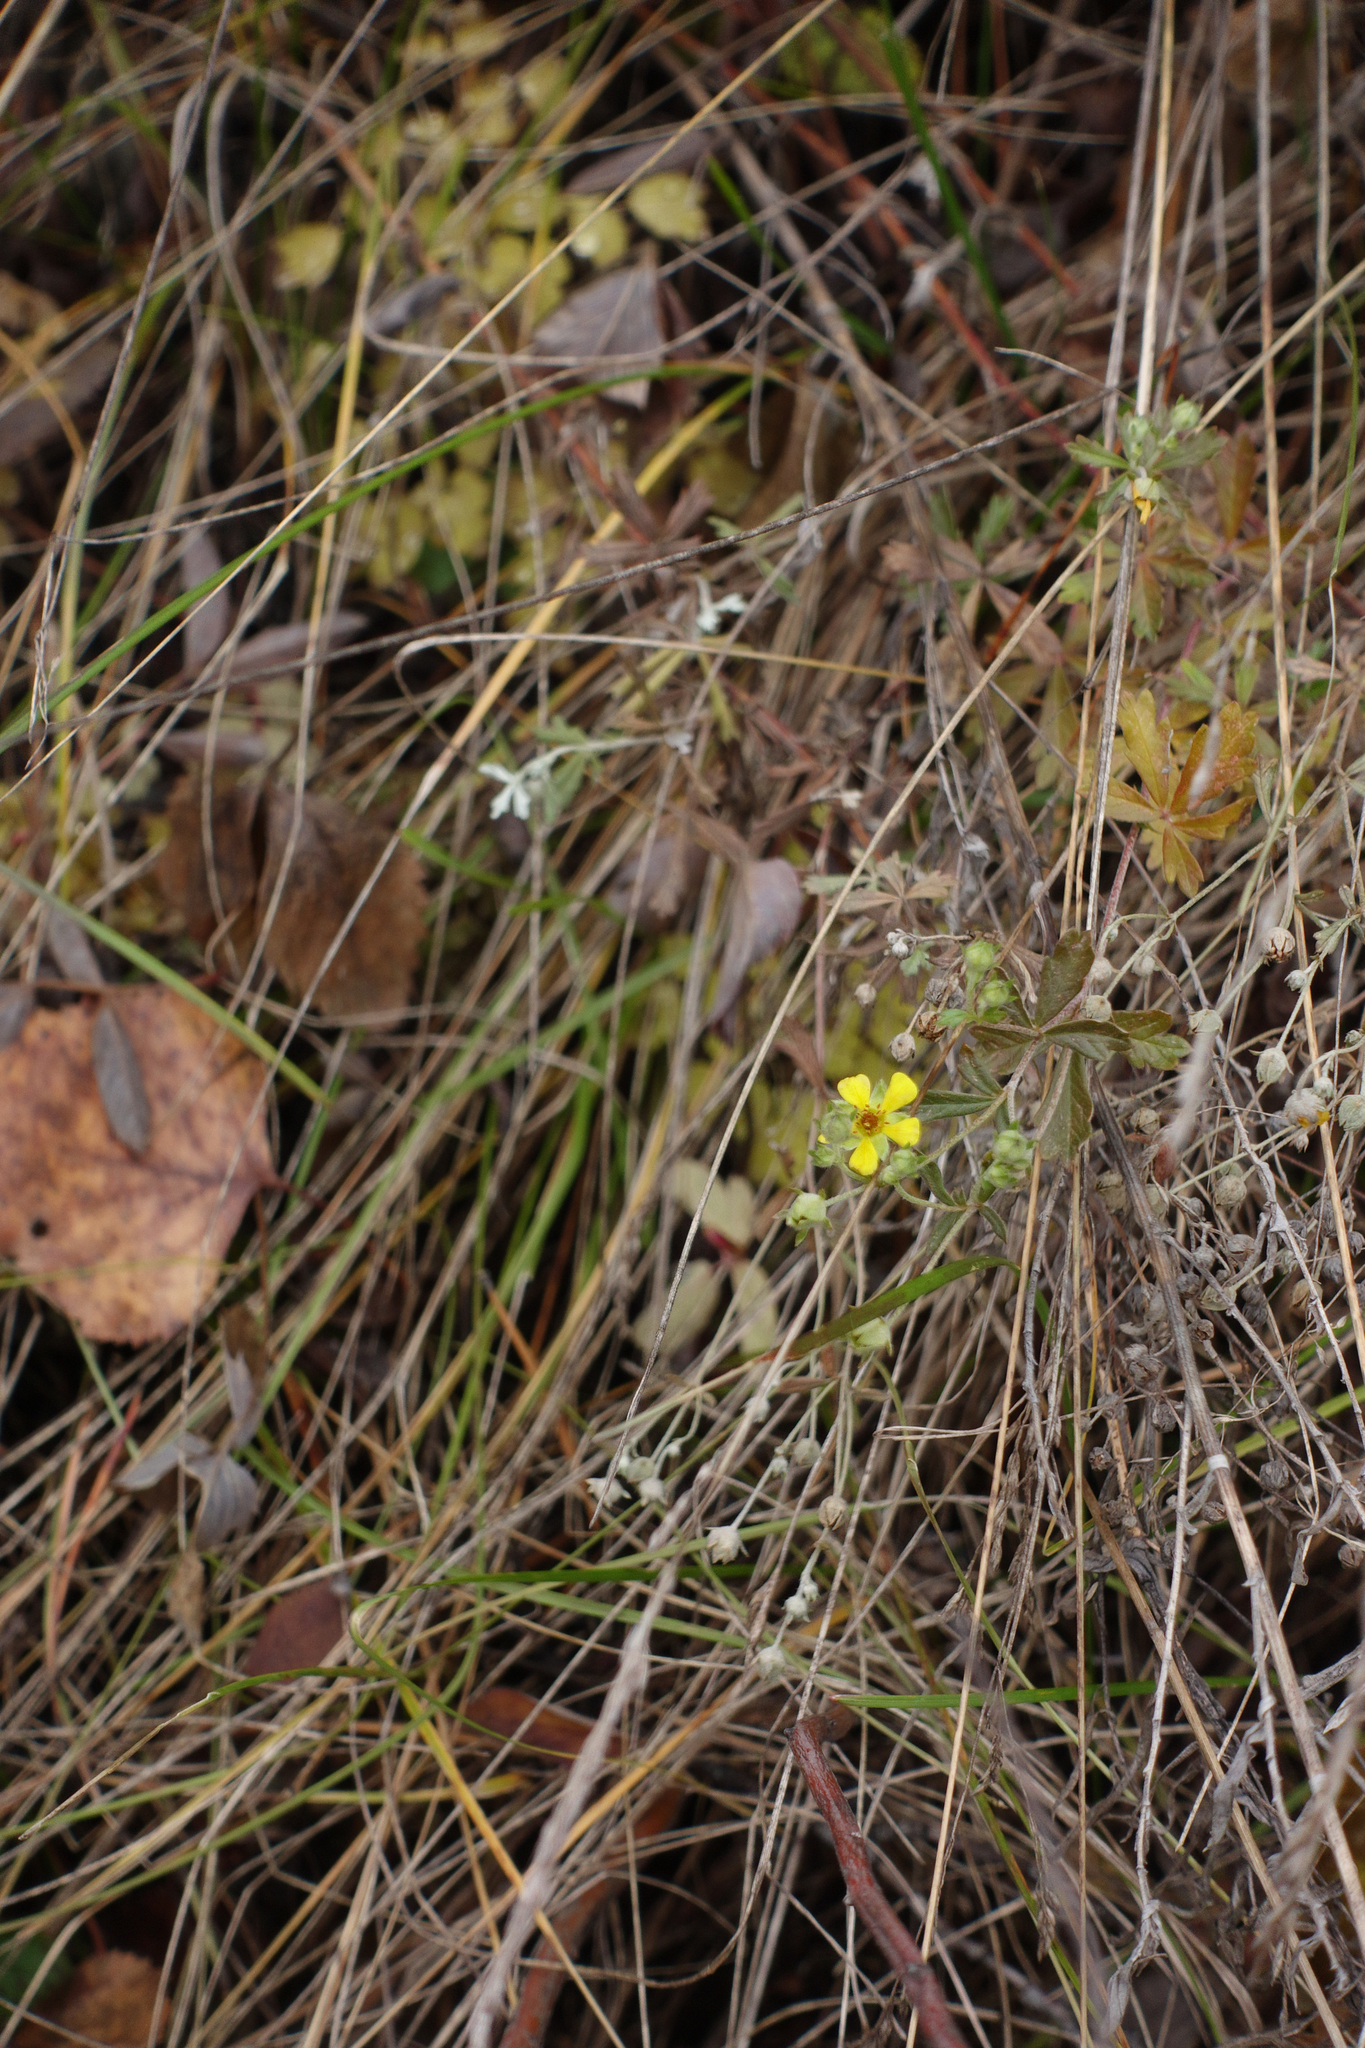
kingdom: Plantae
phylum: Tracheophyta
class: Magnoliopsida
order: Rosales
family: Rosaceae
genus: Potentilla
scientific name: Potentilla argentea
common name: Hoary cinquefoil
